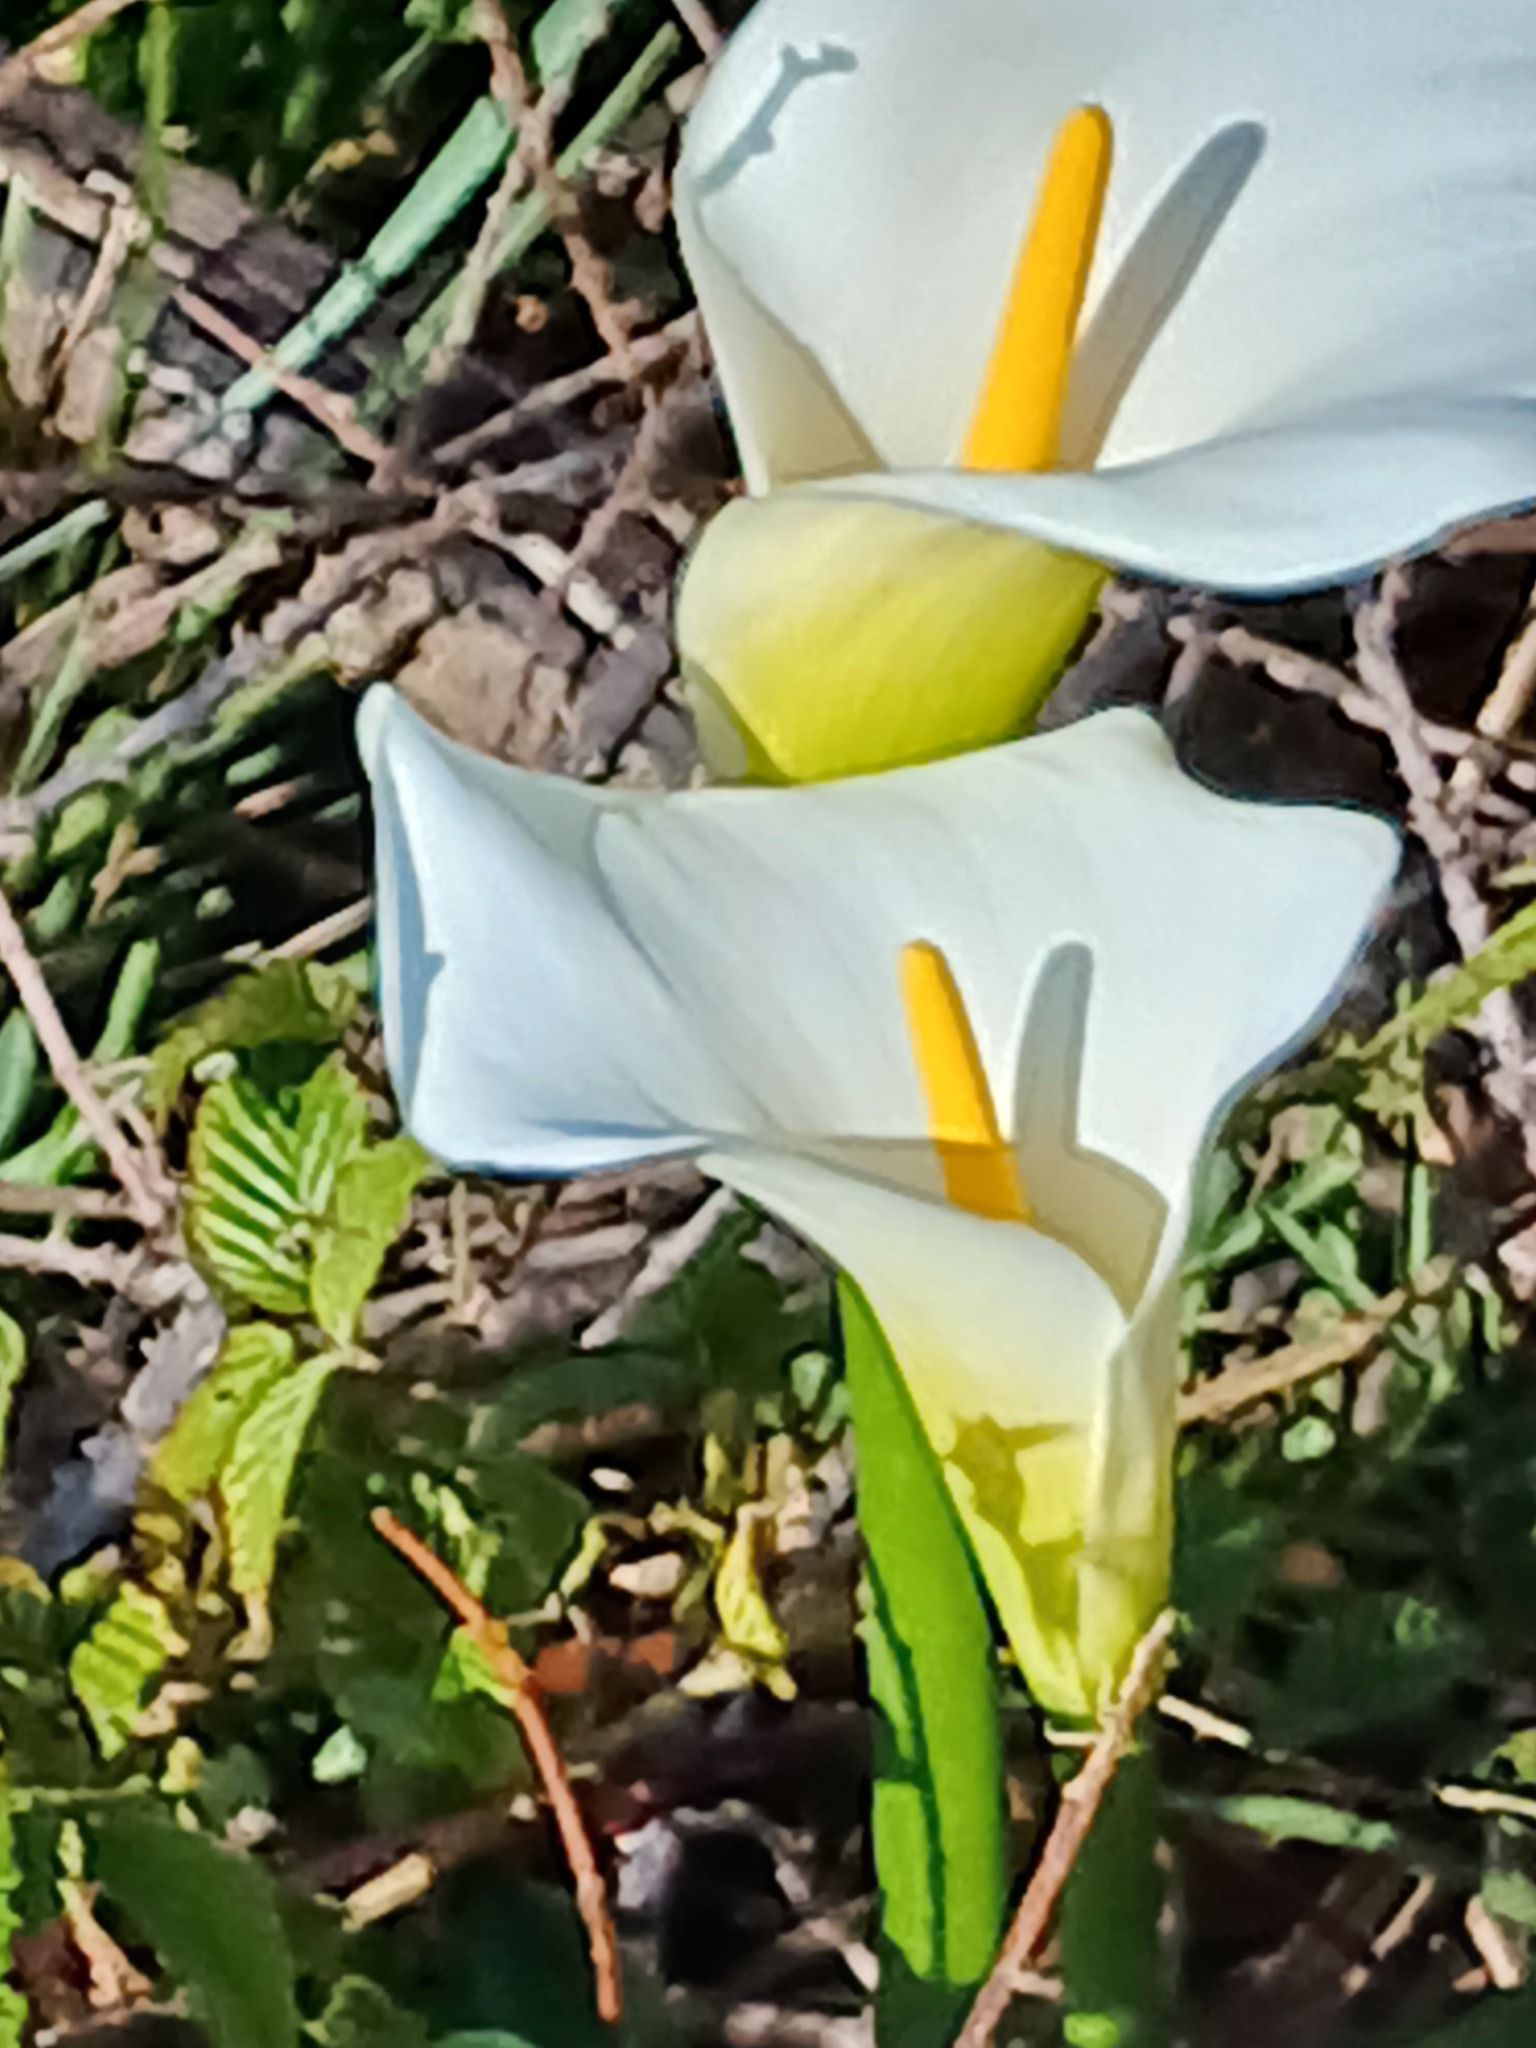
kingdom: Plantae
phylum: Tracheophyta
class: Liliopsida
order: Alismatales
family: Araceae
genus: Zantedeschia
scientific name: Zantedeschia aethiopica
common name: Altar-lily
